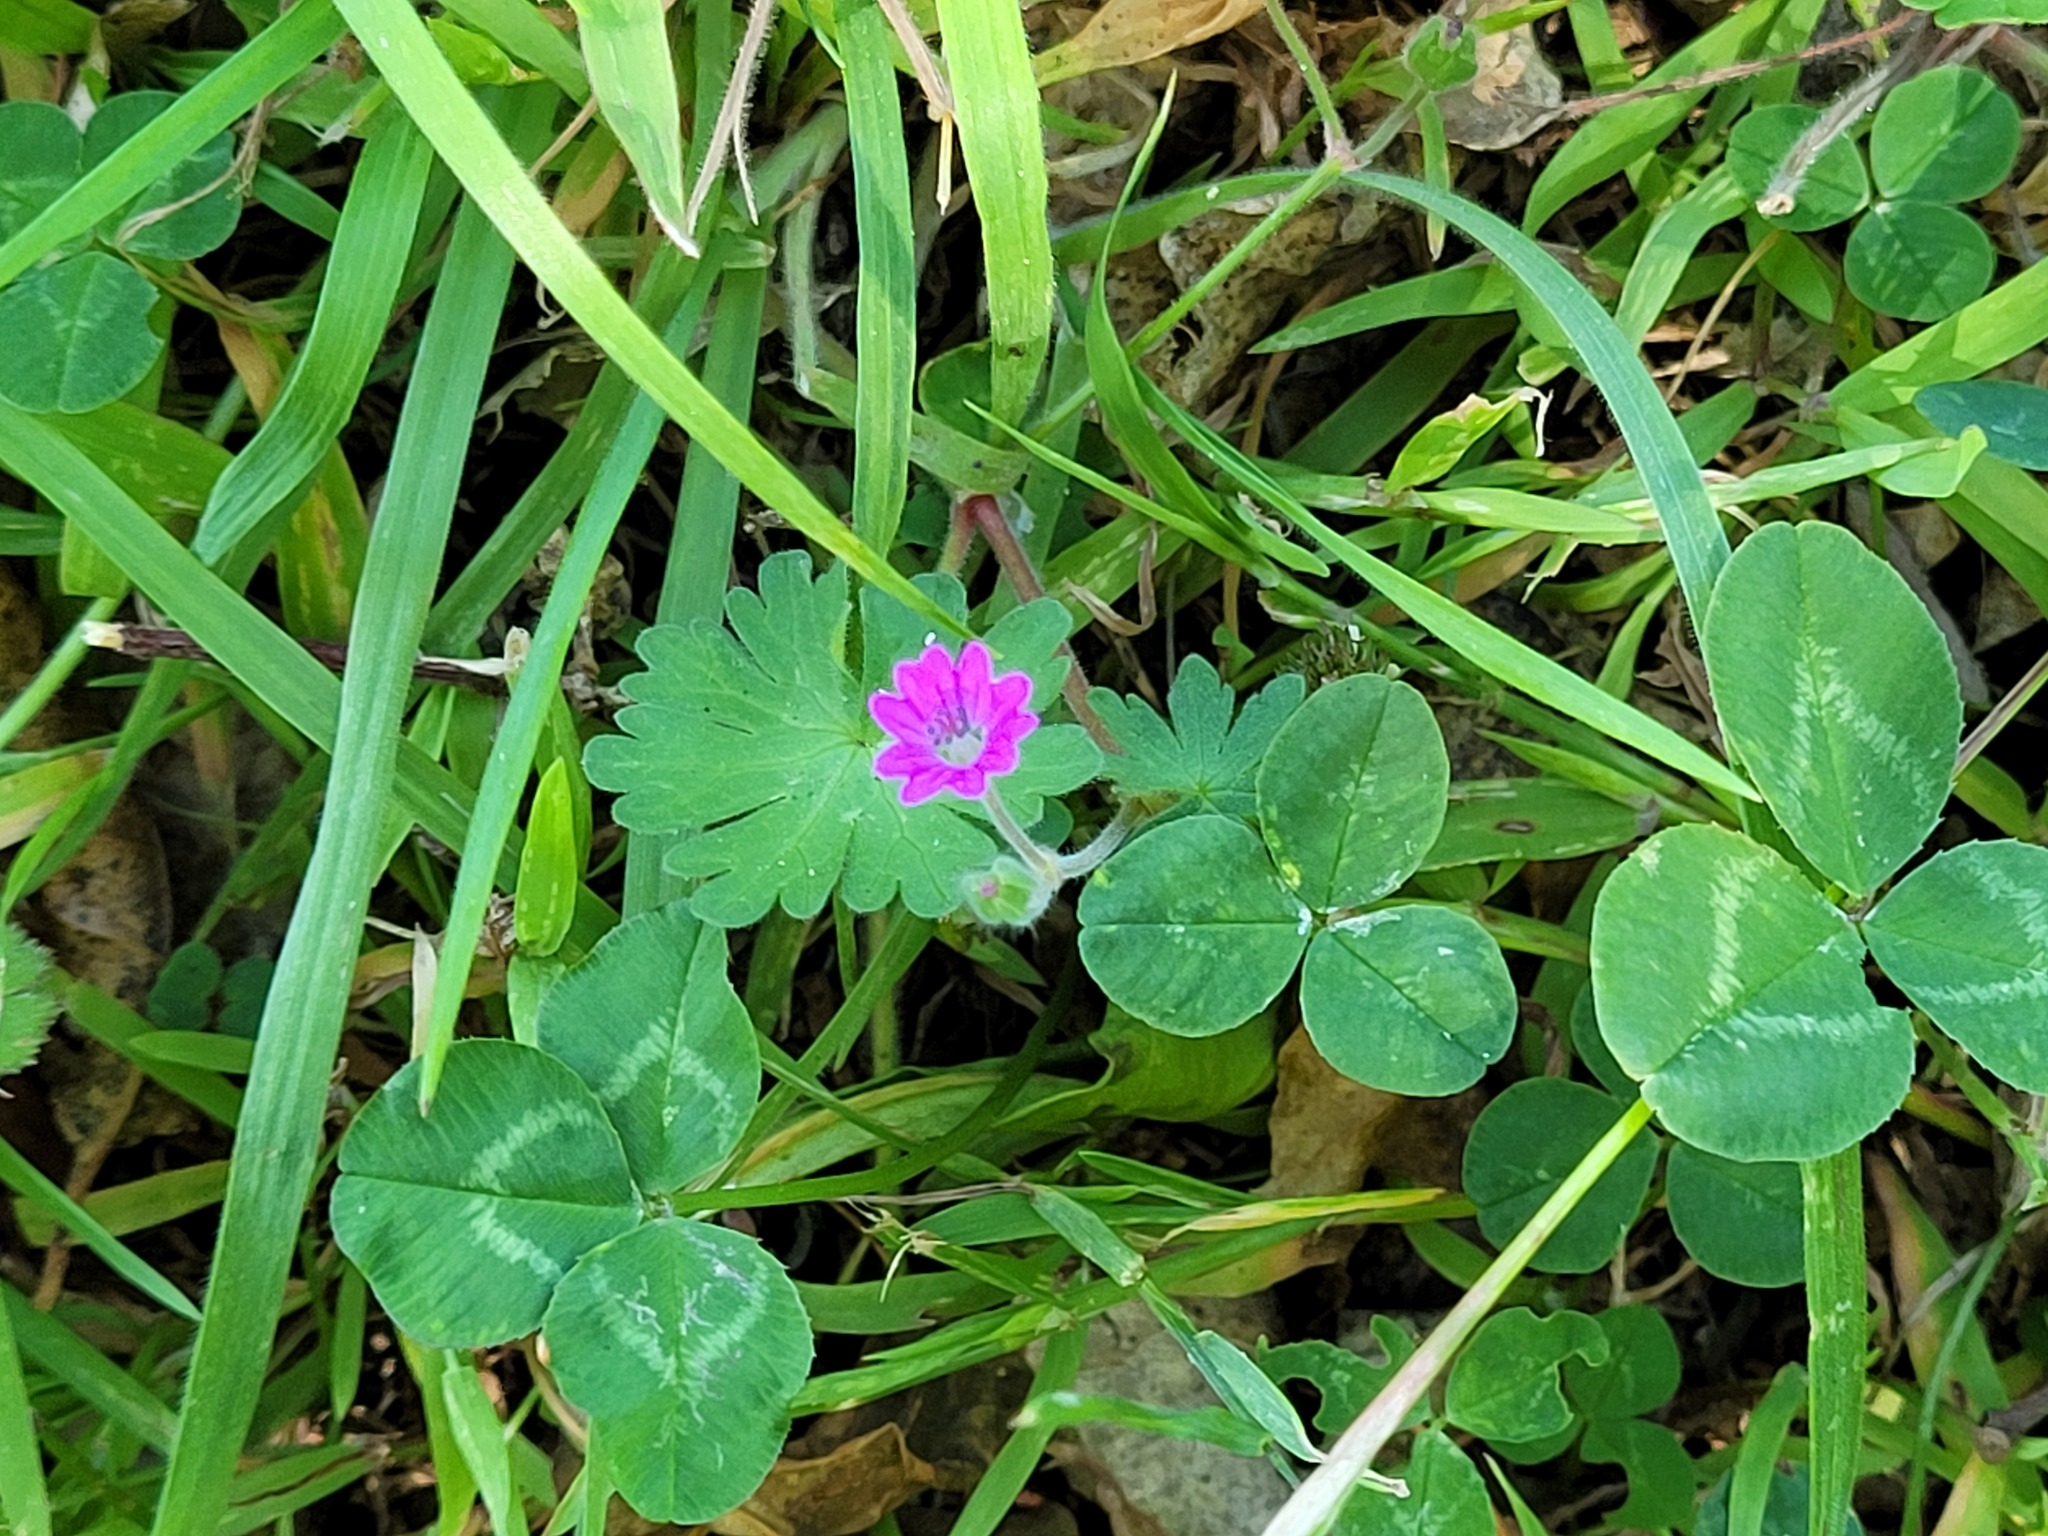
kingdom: Plantae
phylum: Tracheophyta
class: Magnoliopsida
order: Geraniales
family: Geraniaceae
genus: Geranium
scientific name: Geranium molle
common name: Dove's-foot crane's-bill
